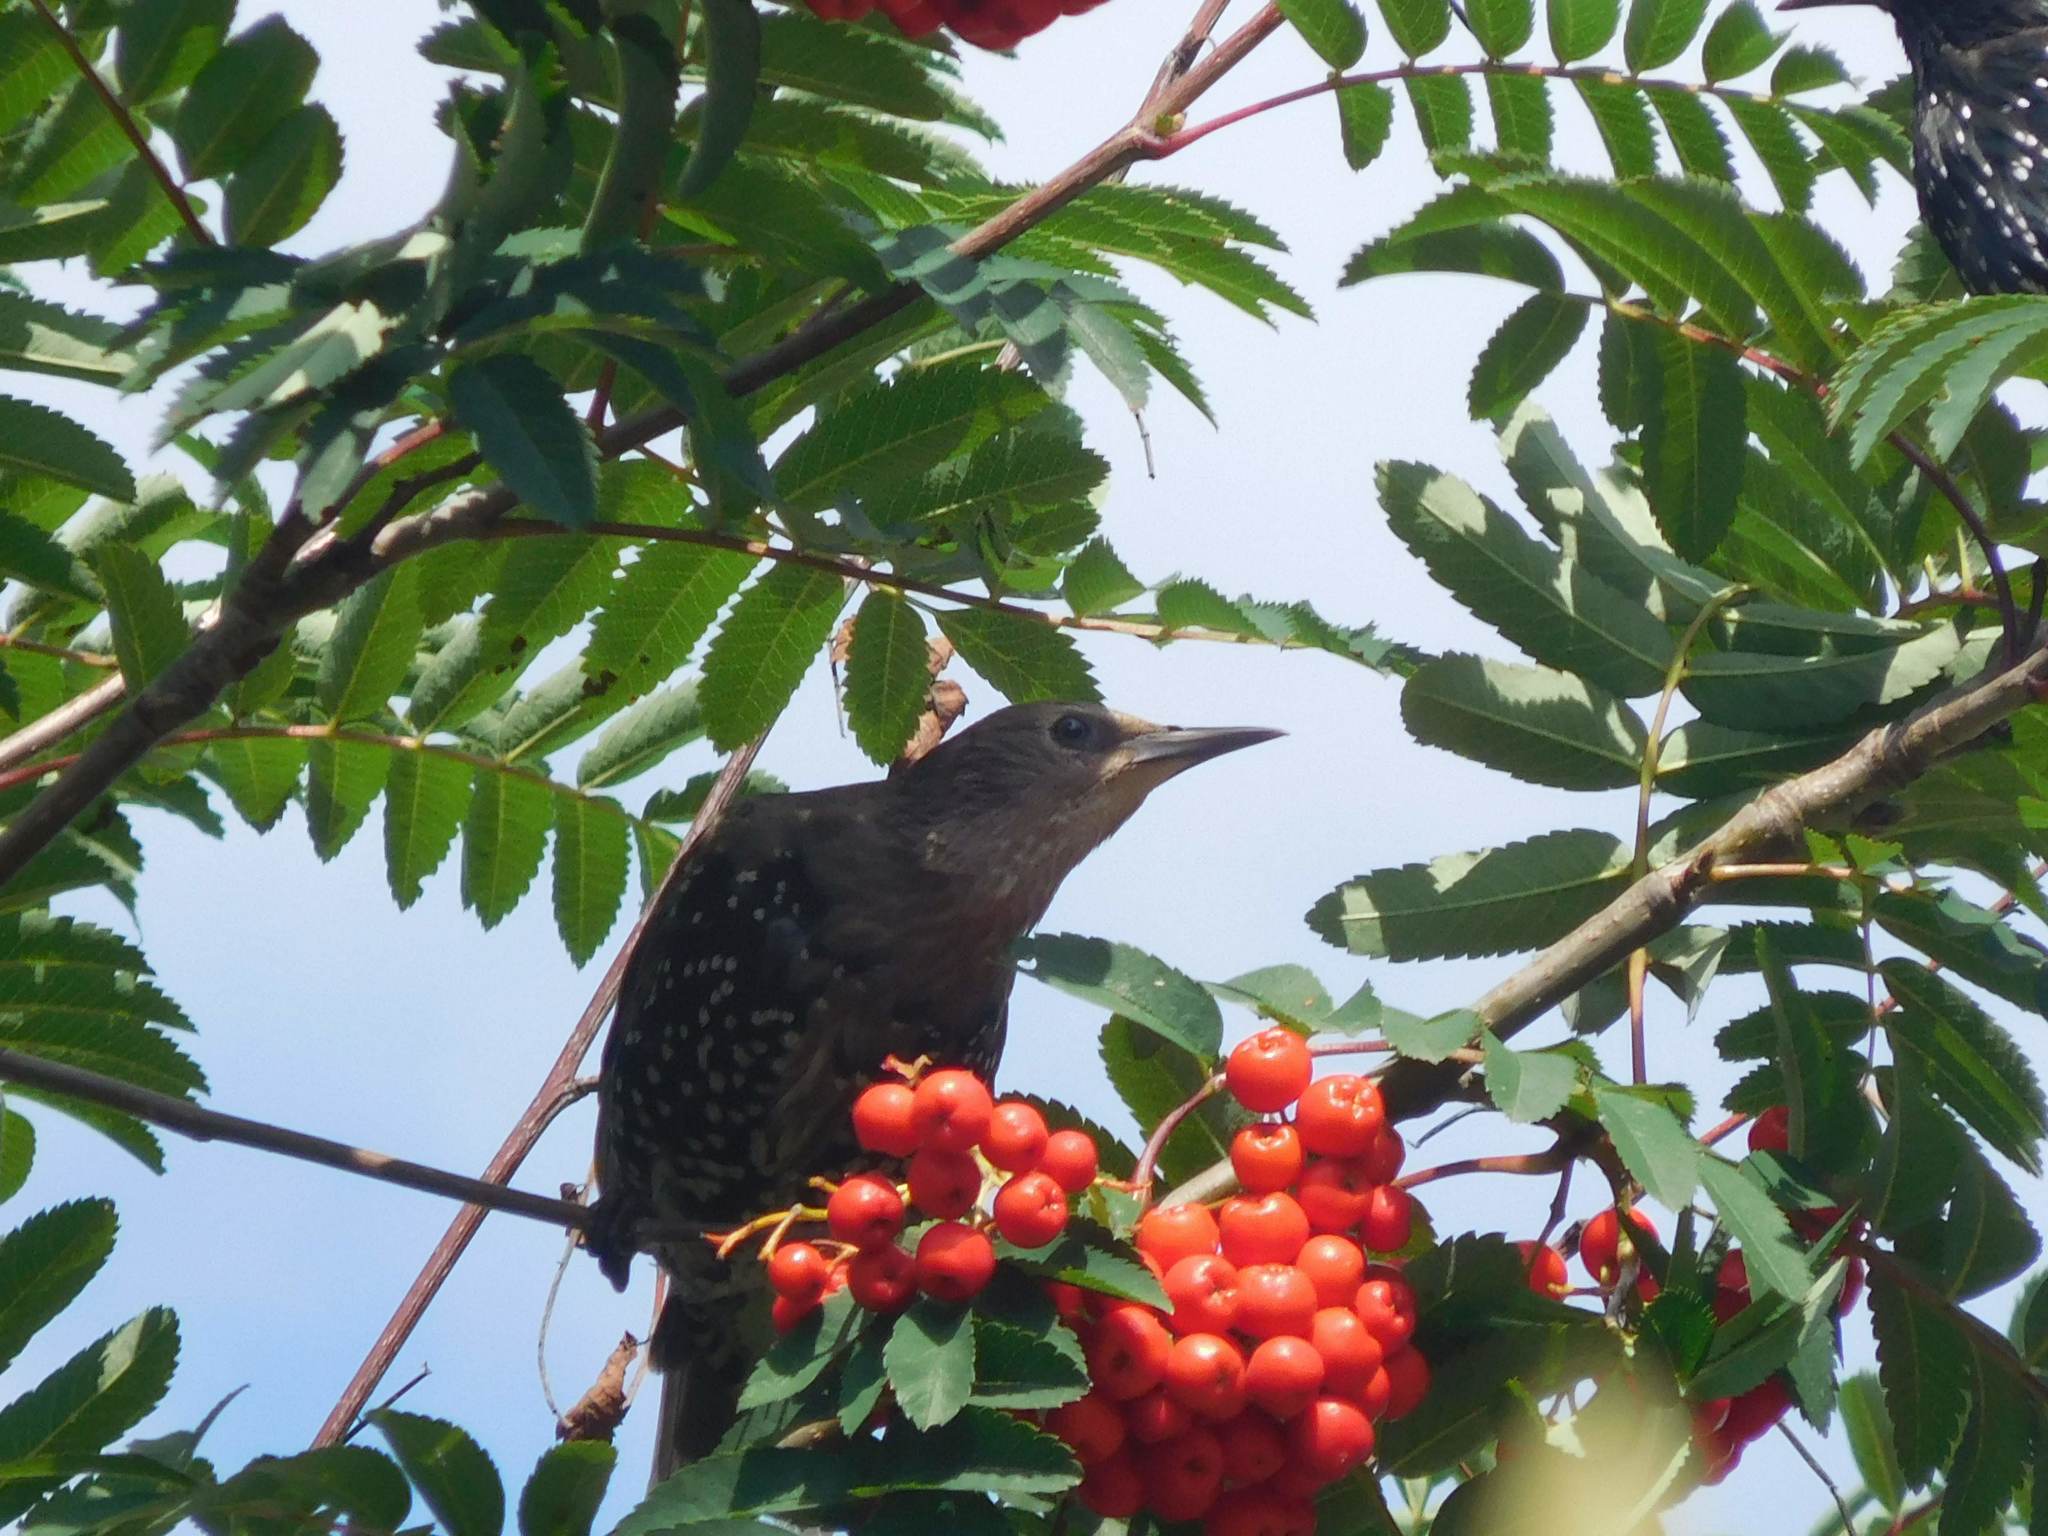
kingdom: Animalia
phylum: Chordata
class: Aves
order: Passeriformes
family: Sturnidae
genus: Sturnus
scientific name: Sturnus vulgaris
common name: Common starling
